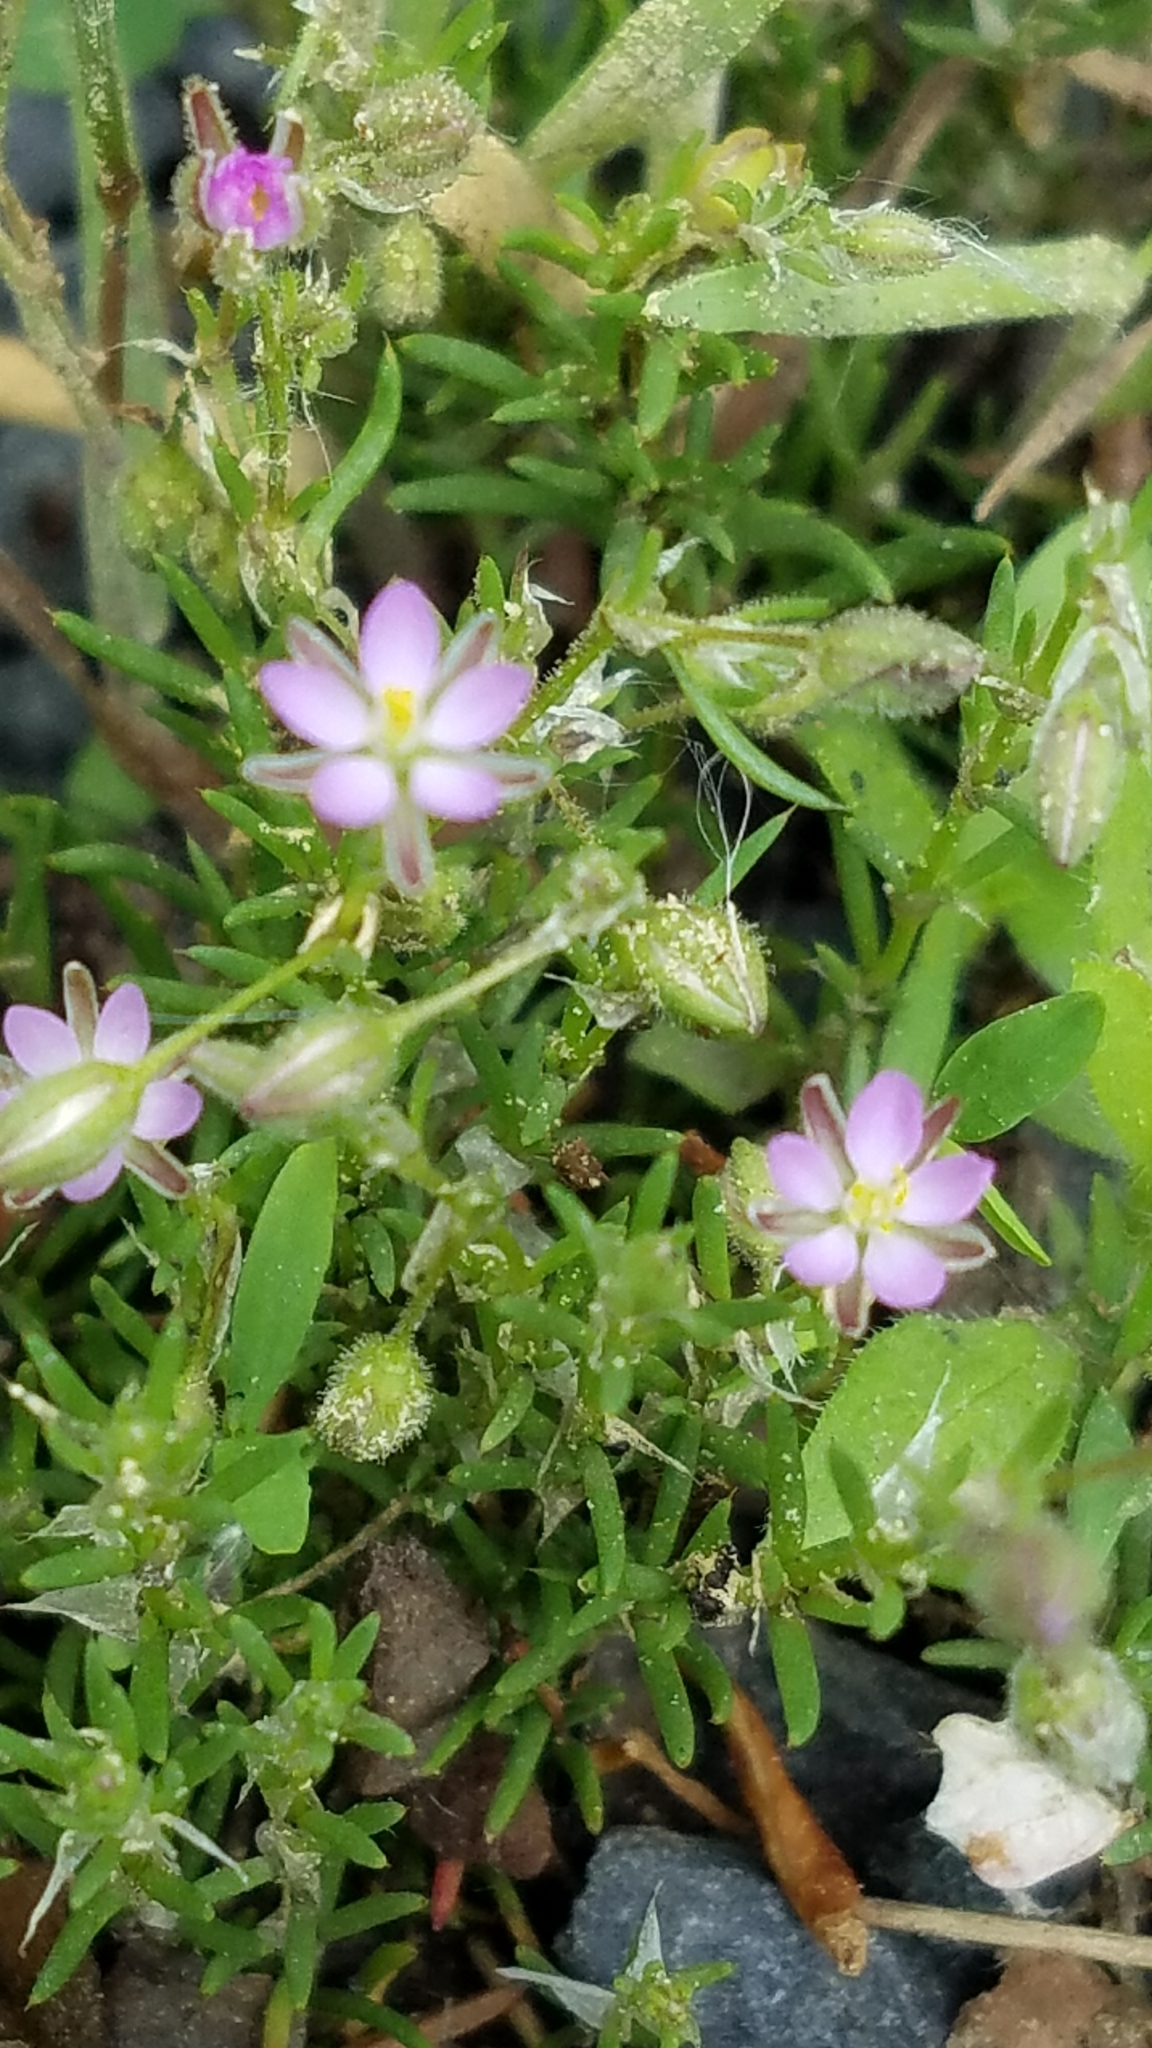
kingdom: Plantae
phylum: Tracheophyta
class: Magnoliopsida
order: Caryophyllales
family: Caryophyllaceae
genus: Spergularia
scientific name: Spergularia rubra
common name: Red sand-spurrey
